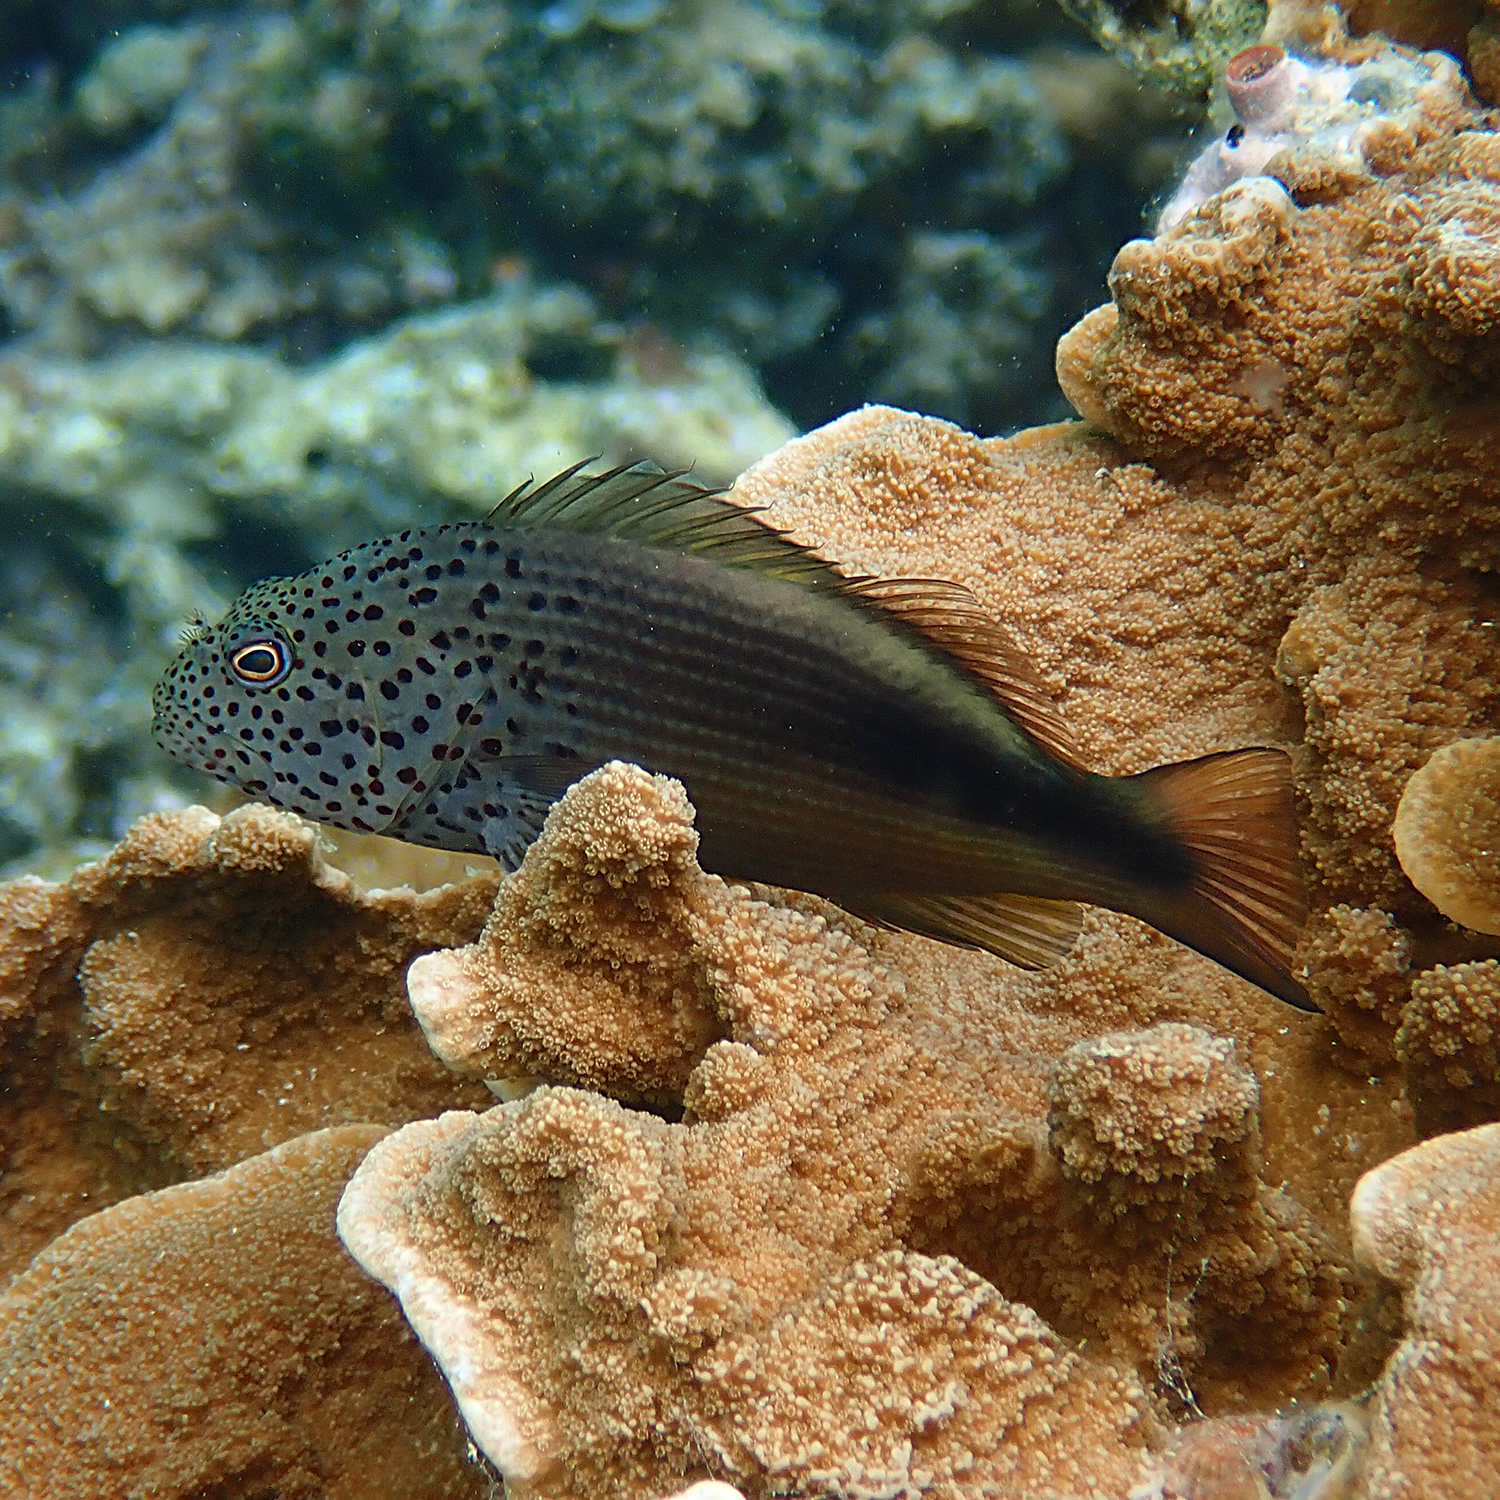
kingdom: Animalia
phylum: Chordata
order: Perciformes
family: Cirrhitidae
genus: Paracirrhites
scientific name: Paracirrhites forsteri
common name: Freckled hawkfish
